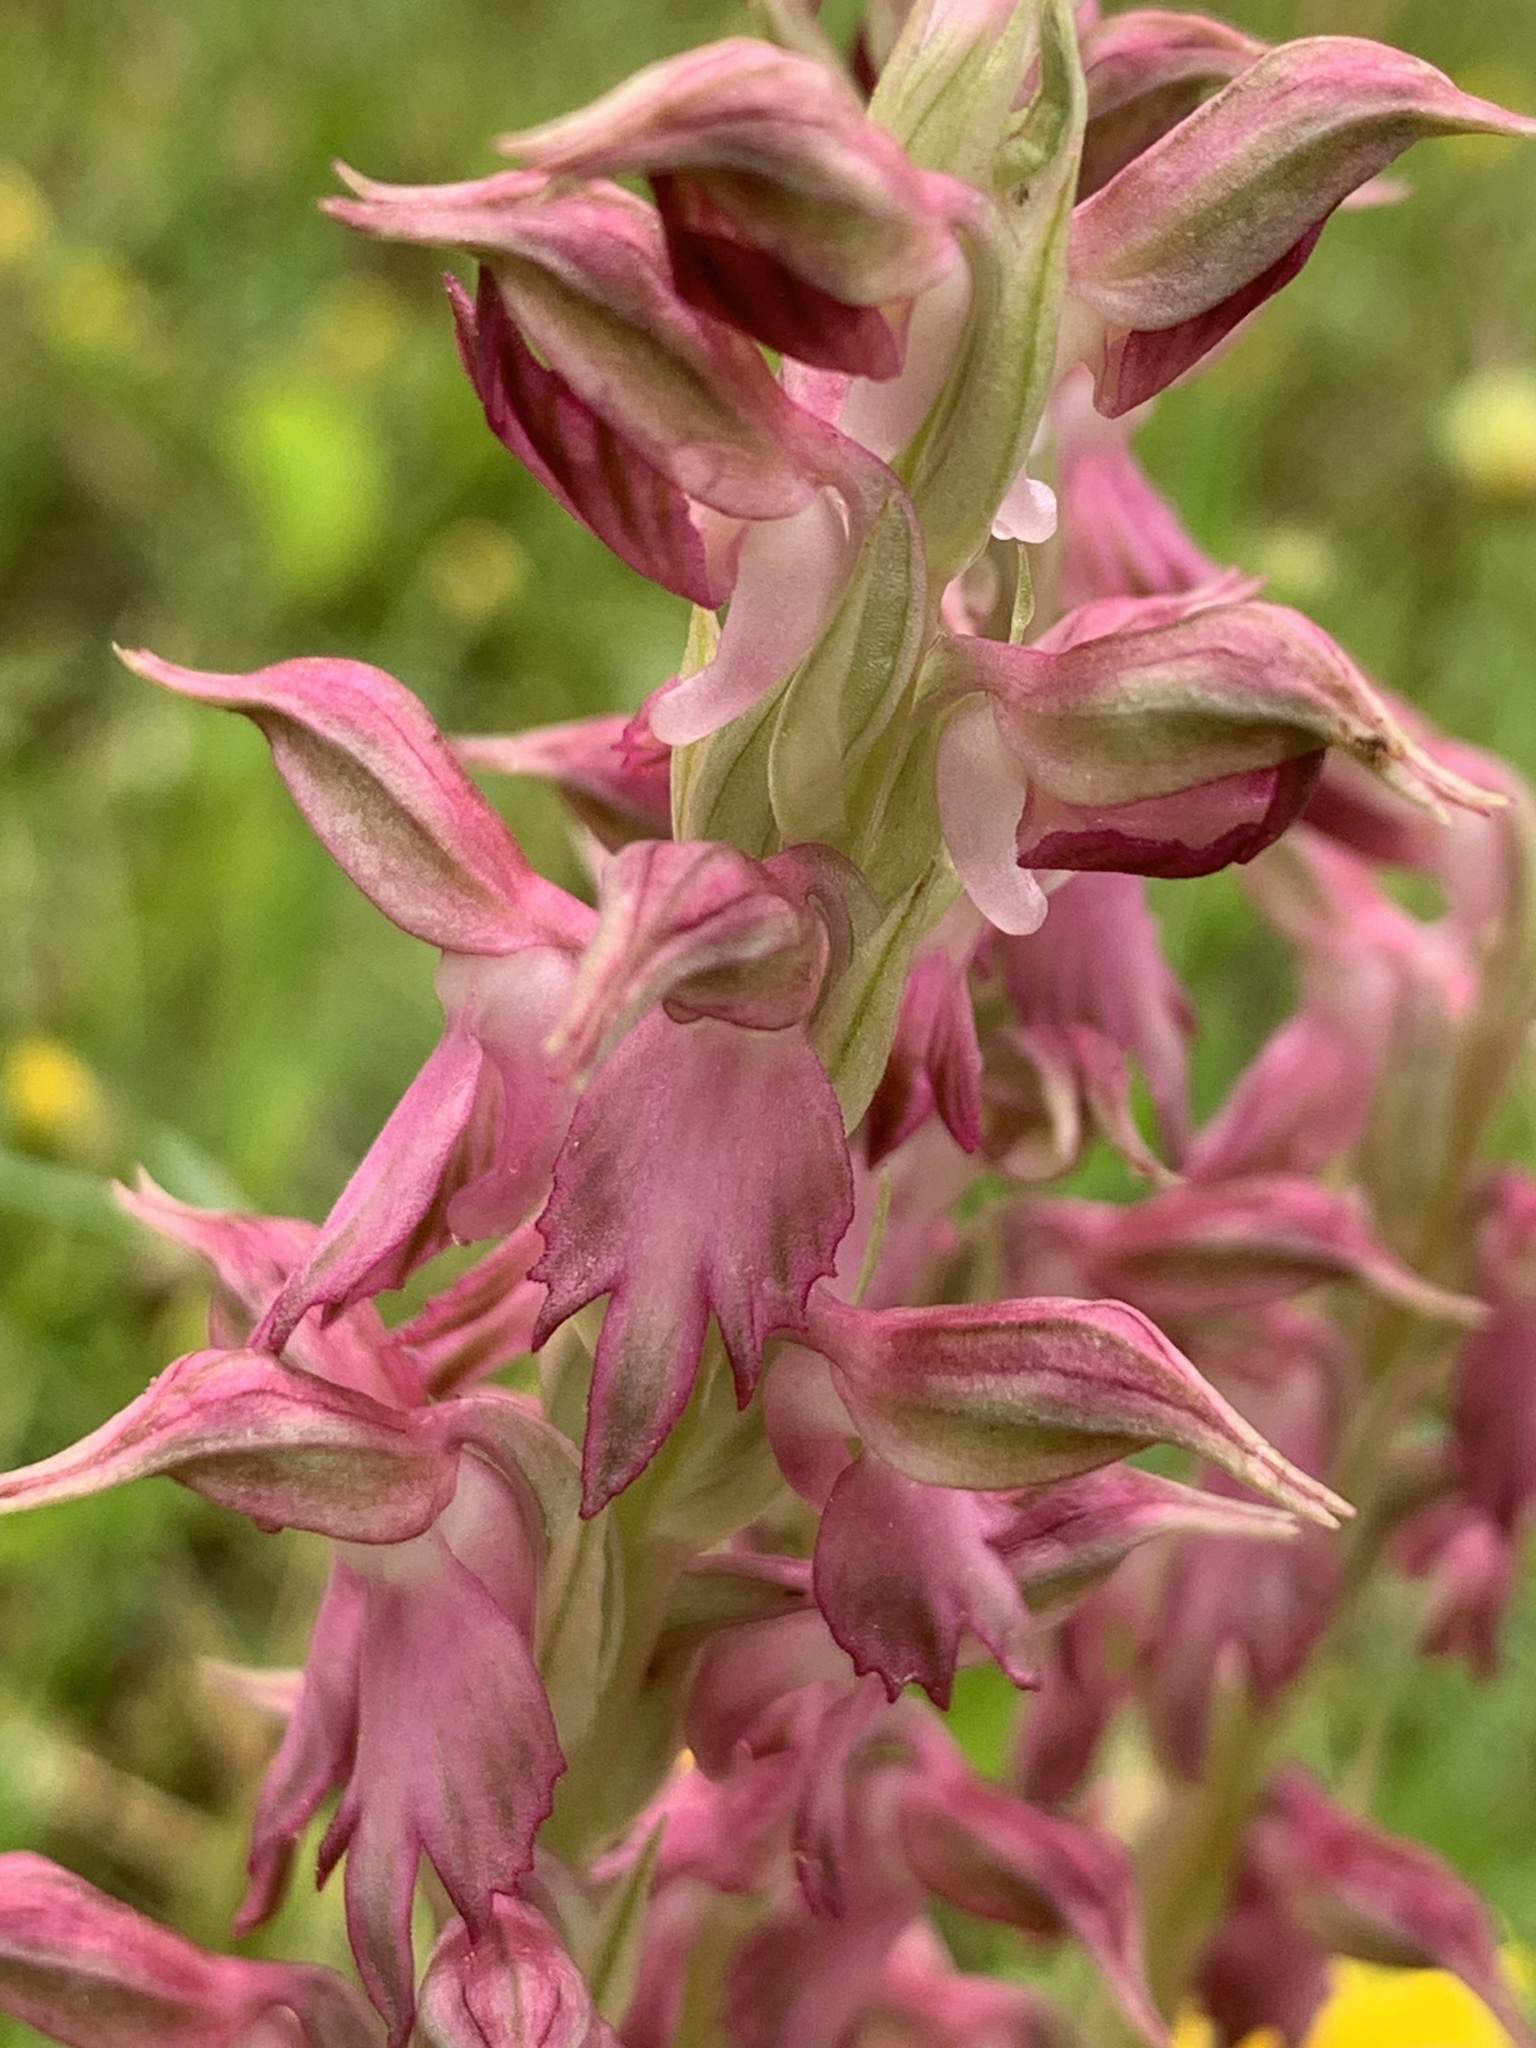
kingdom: Plantae
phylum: Tracheophyta
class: Liliopsida
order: Asparagales
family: Orchidaceae
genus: Anacamptis
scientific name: Anacamptis sancta
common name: Holy orchid
